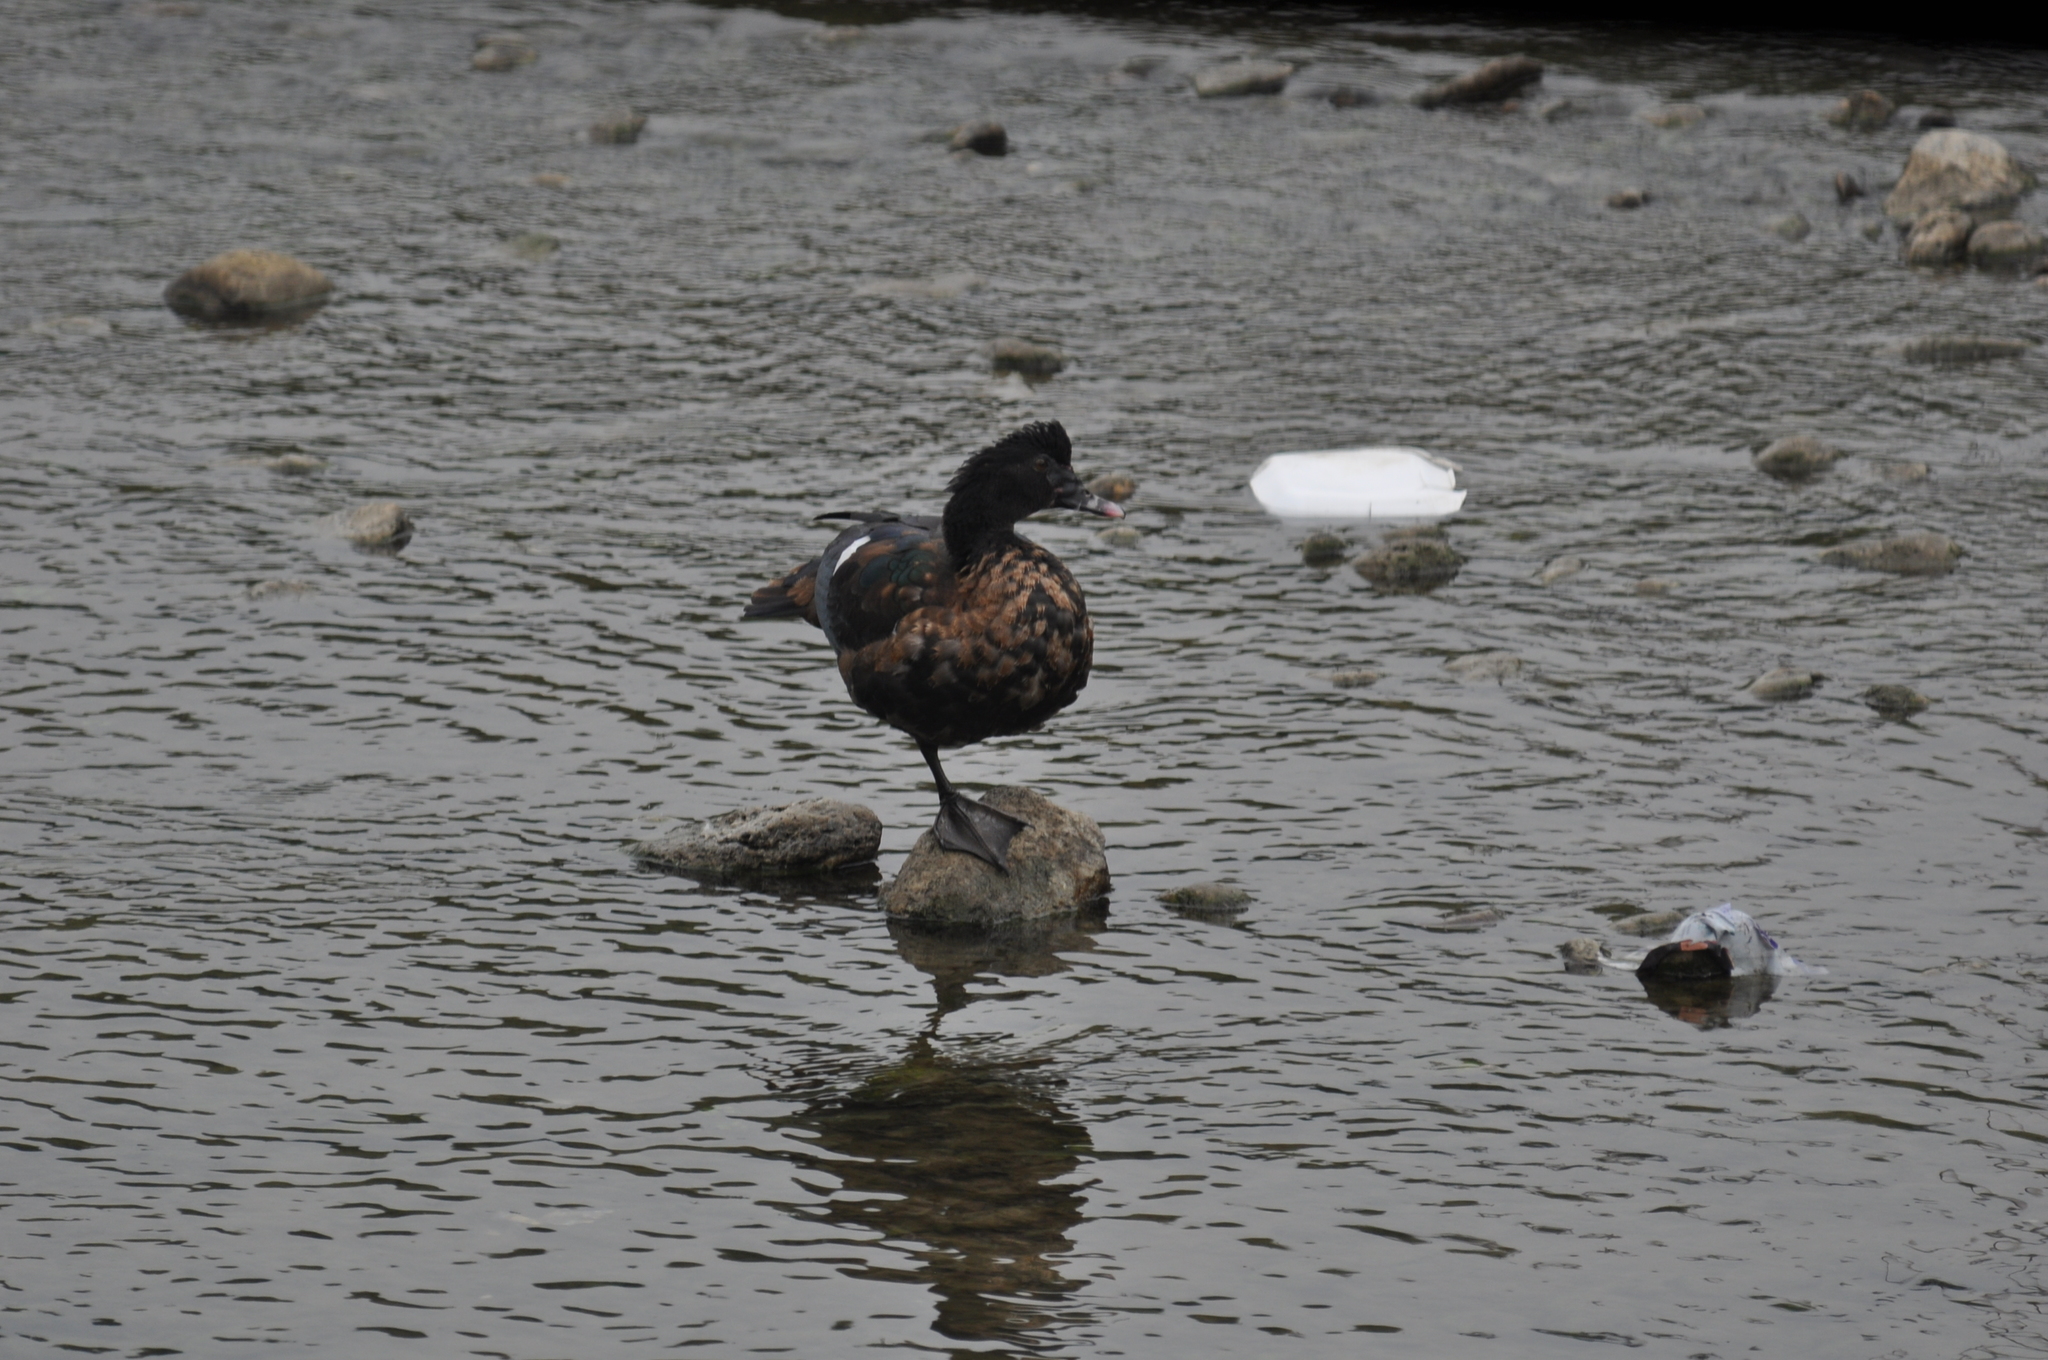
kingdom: Animalia
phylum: Chordata
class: Aves
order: Anseriformes
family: Anatidae
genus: Cairina
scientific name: Cairina moschata
